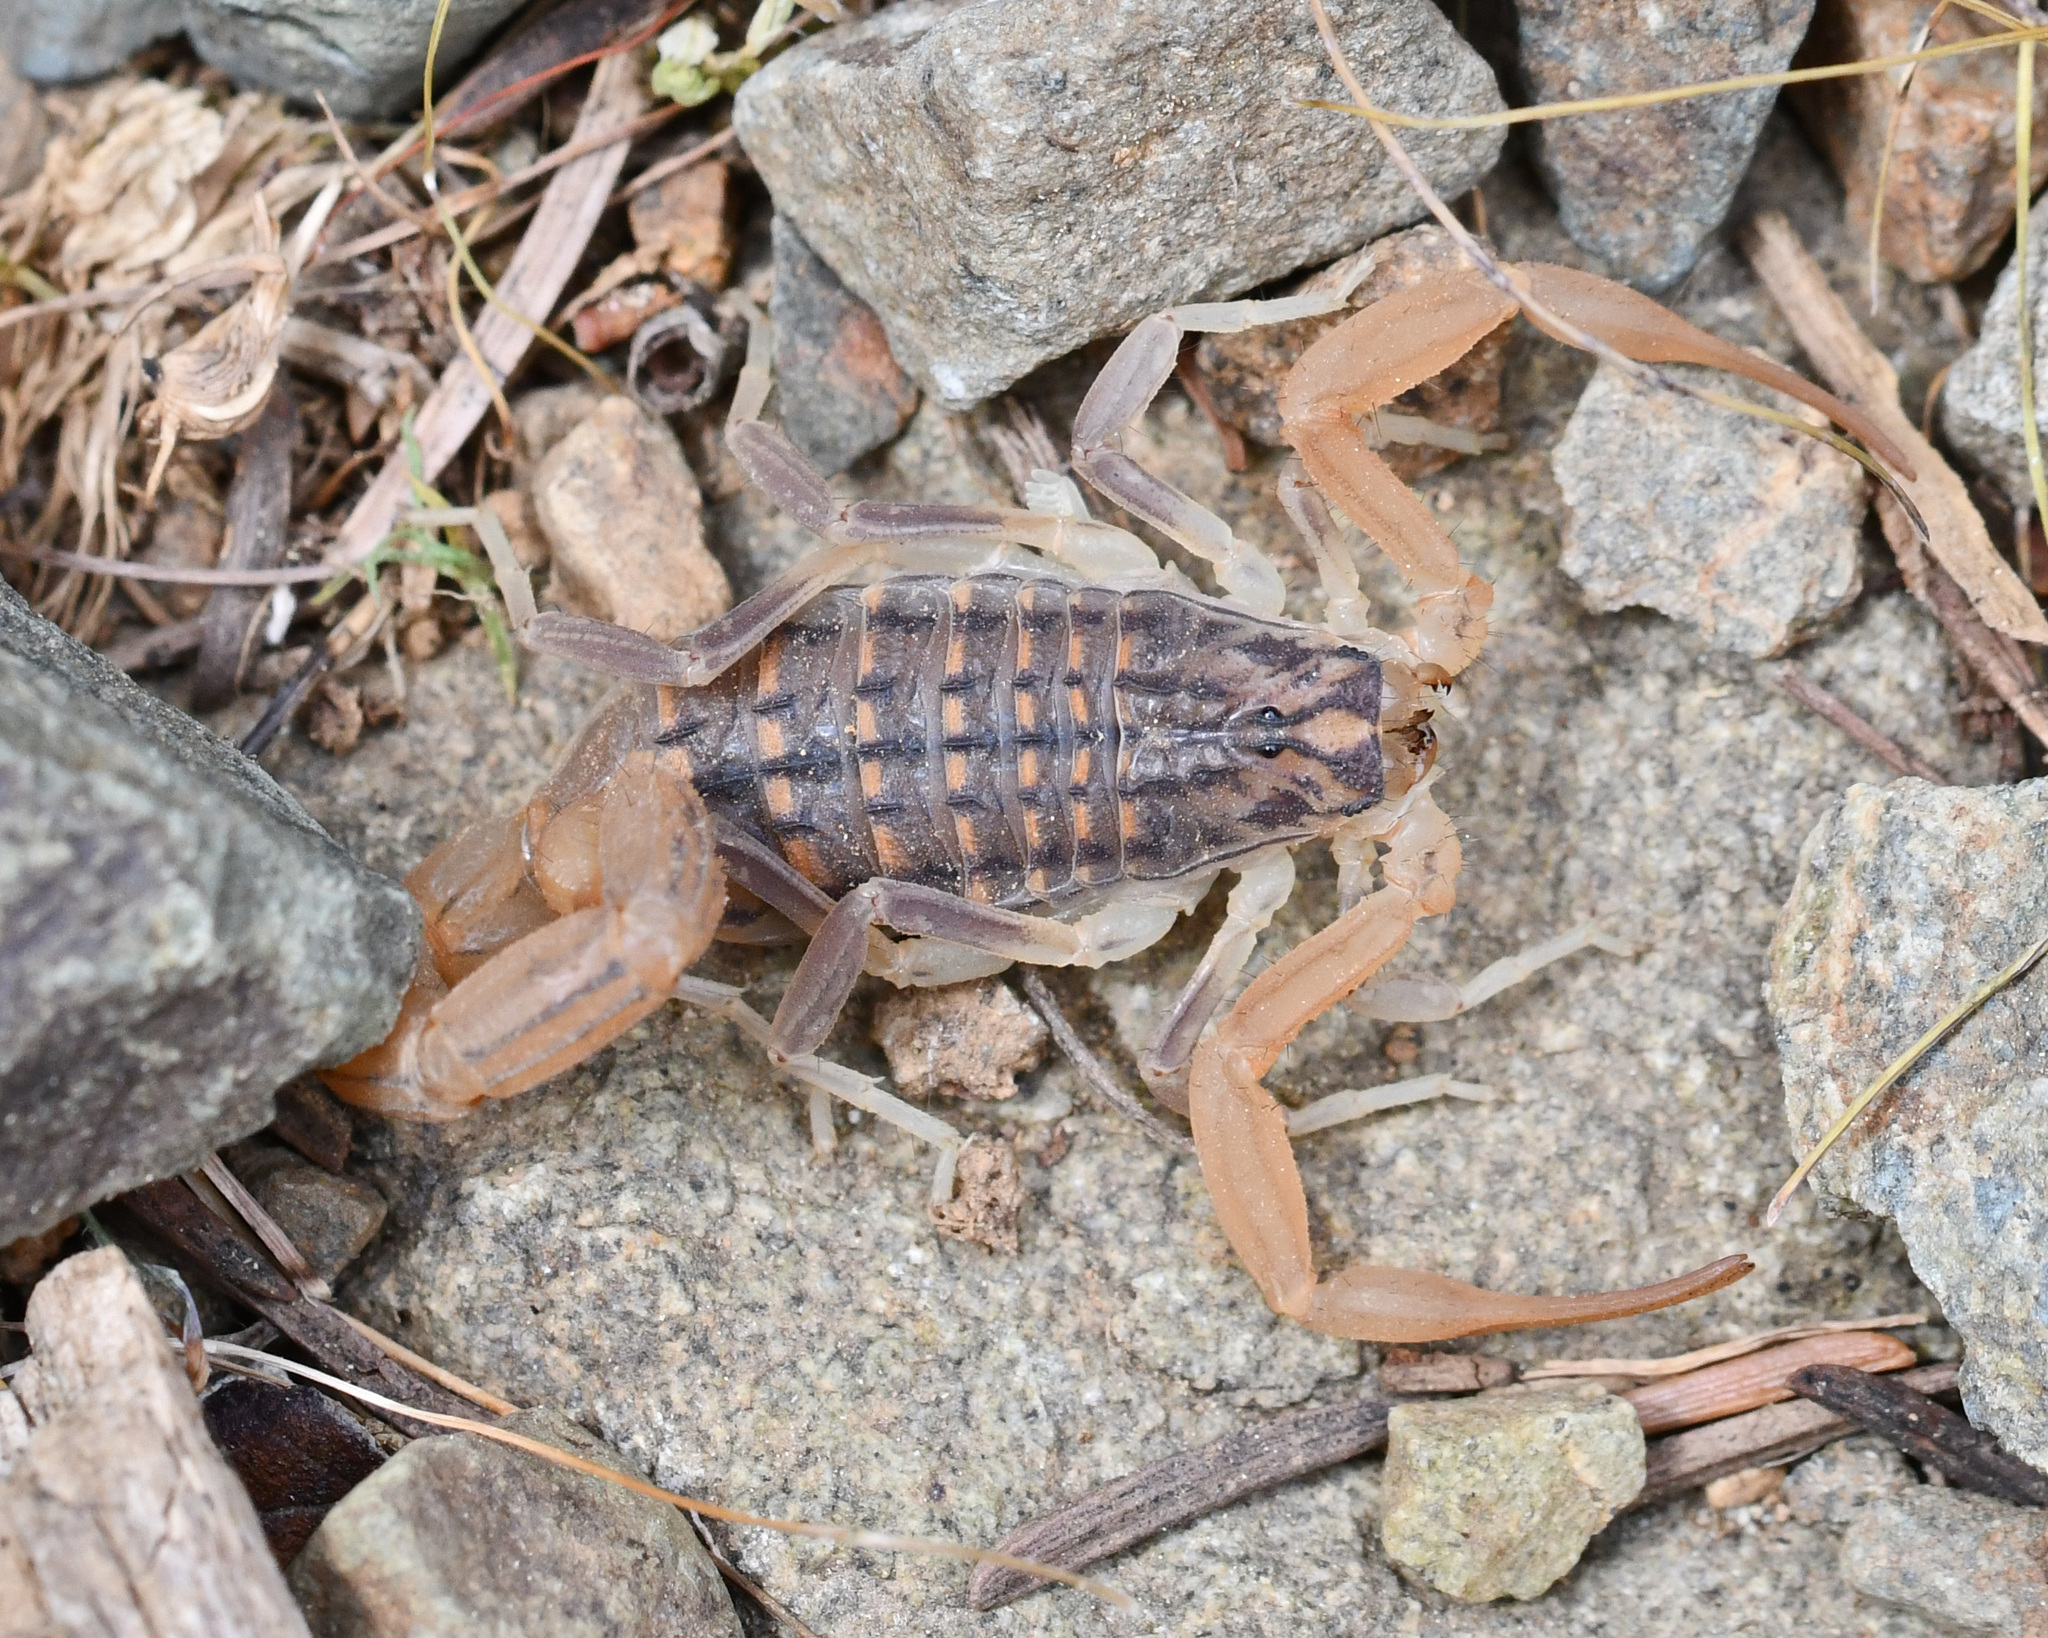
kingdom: Animalia
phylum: Arthropoda
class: Arachnida
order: Scorpiones
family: Buthidae
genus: Aegaeobuthus
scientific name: Aegaeobuthus cyprius
